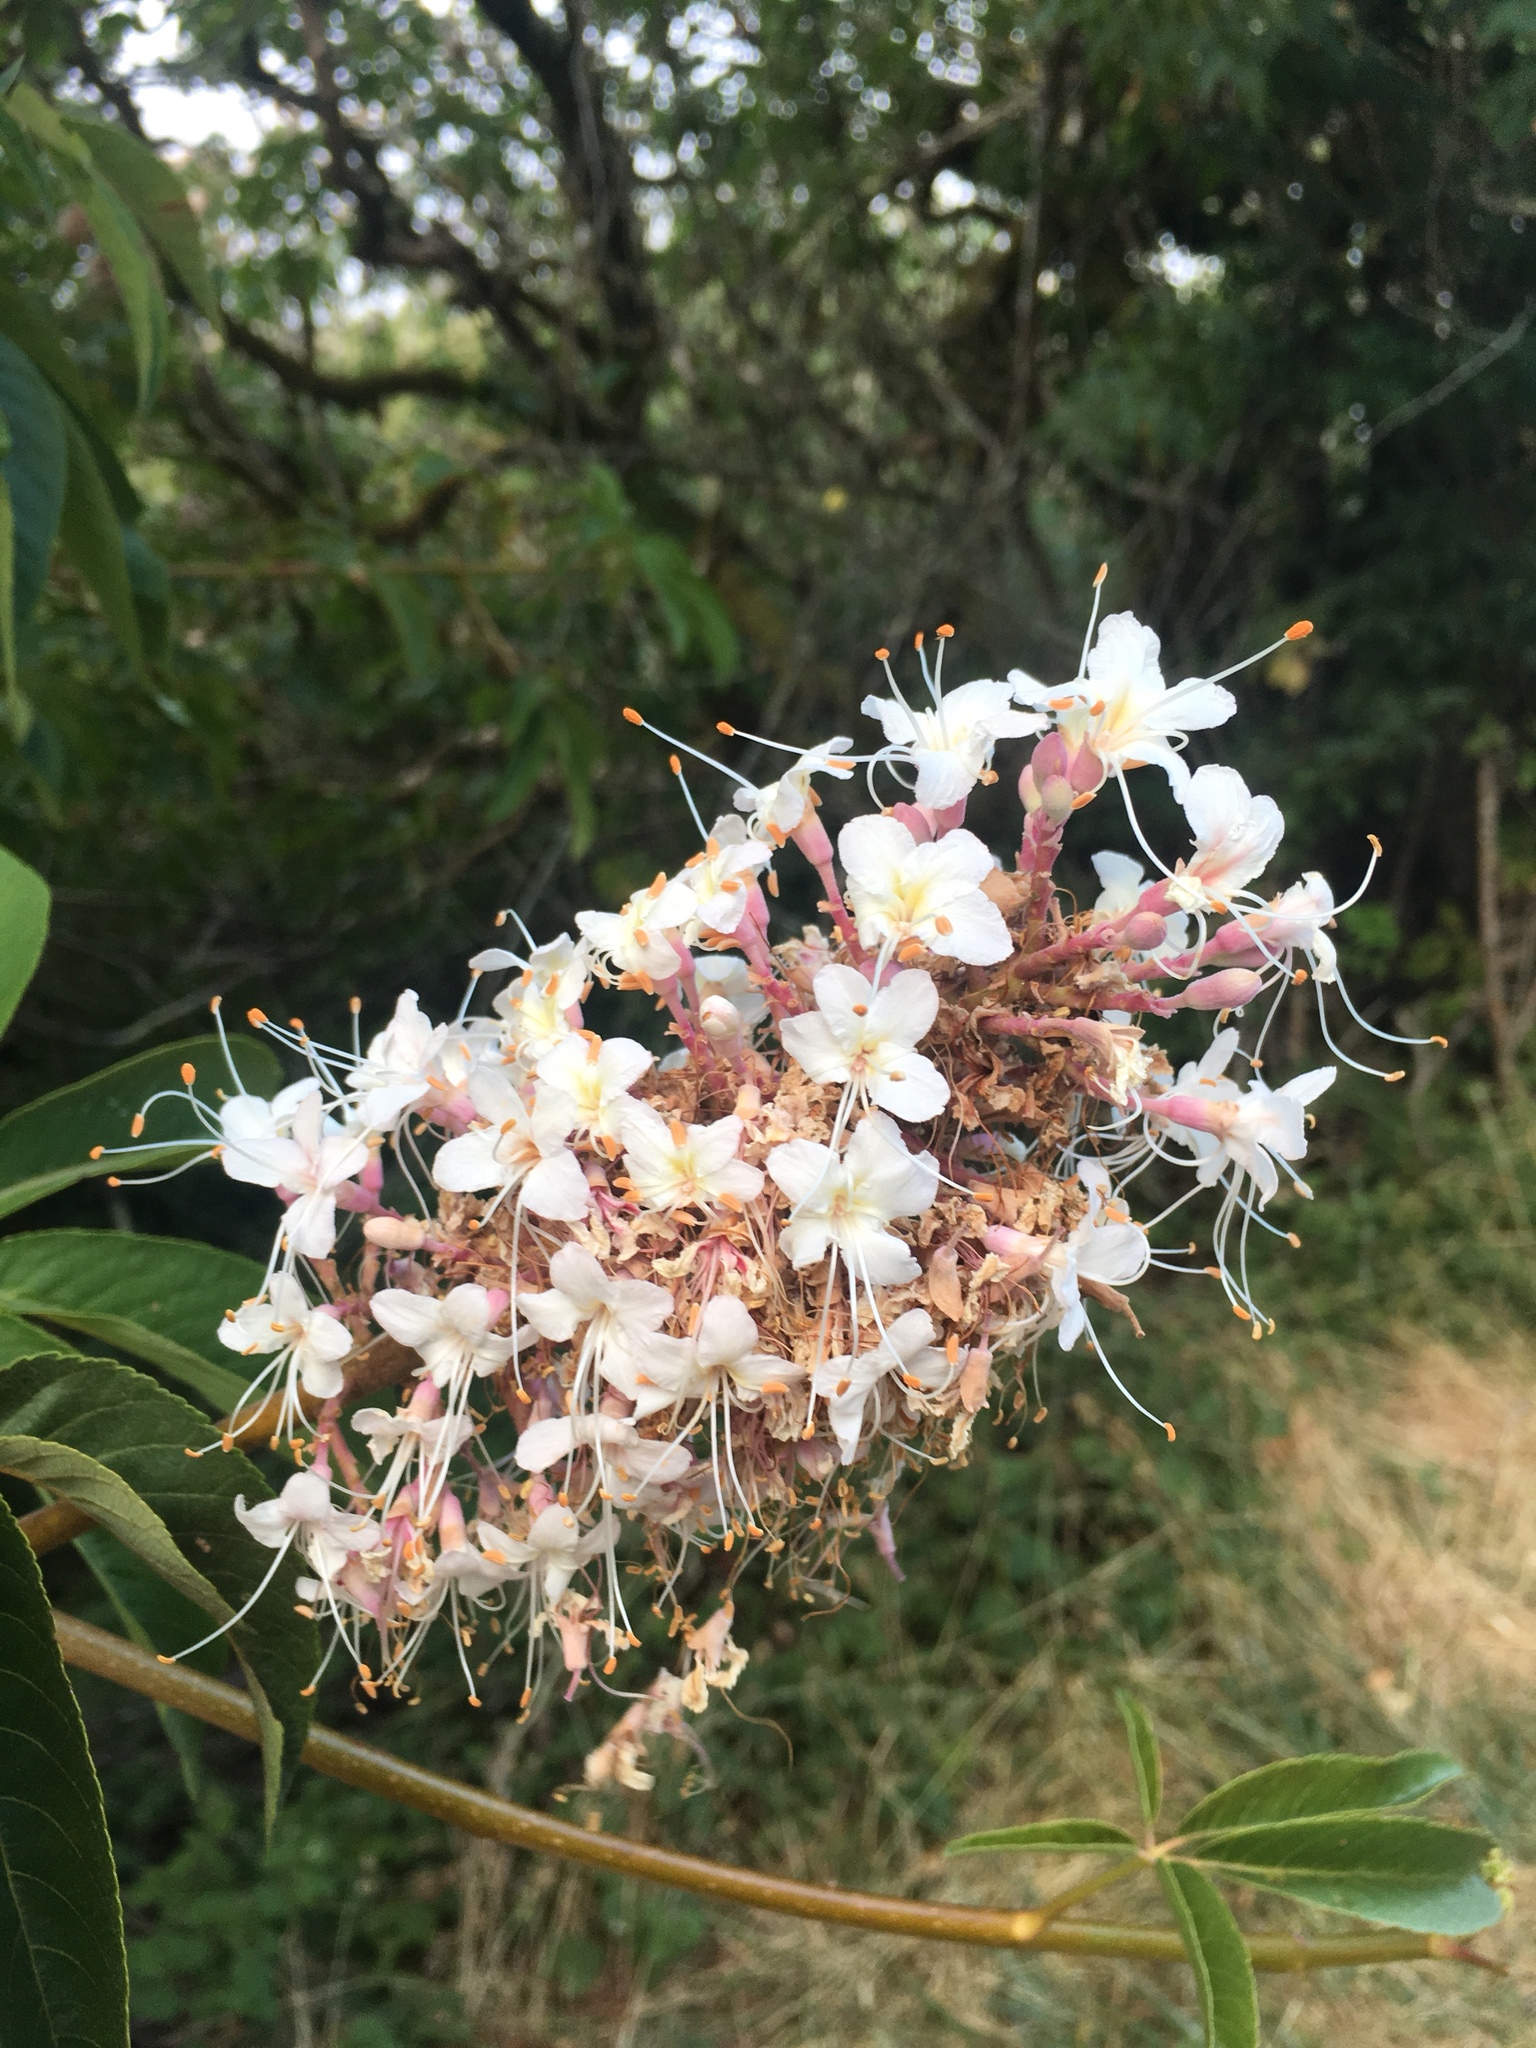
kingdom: Plantae
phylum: Tracheophyta
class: Magnoliopsida
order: Sapindales
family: Sapindaceae
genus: Aesculus
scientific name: Aesculus californica
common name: California buckeye
